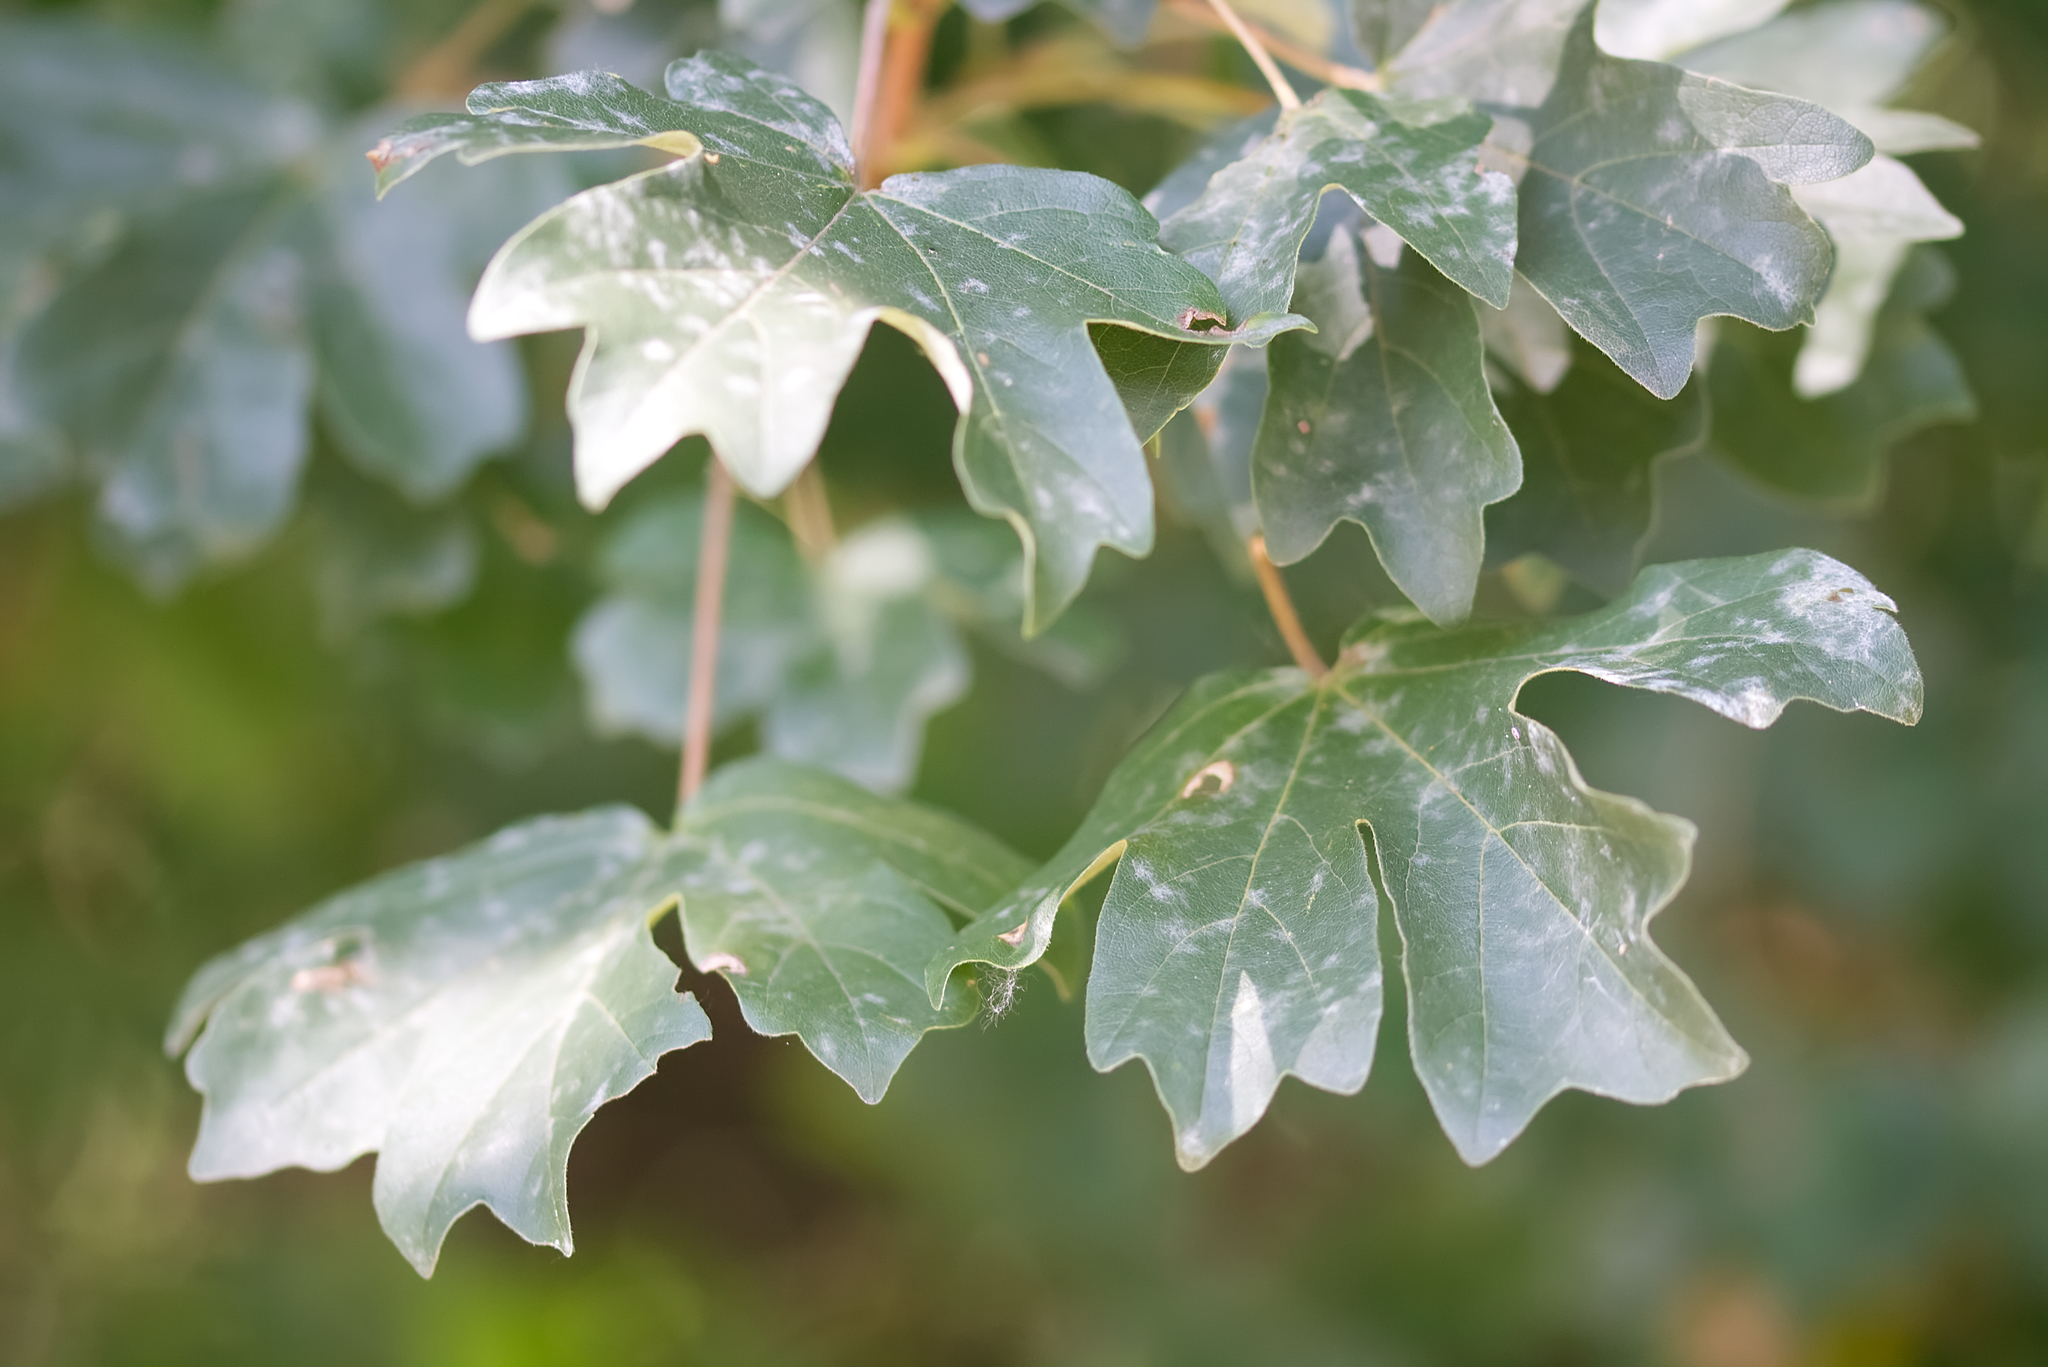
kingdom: Plantae
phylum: Tracheophyta
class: Magnoliopsida
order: Sapindales
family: Sapindaceae
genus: Acer
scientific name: Acer campestre
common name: Field maple
